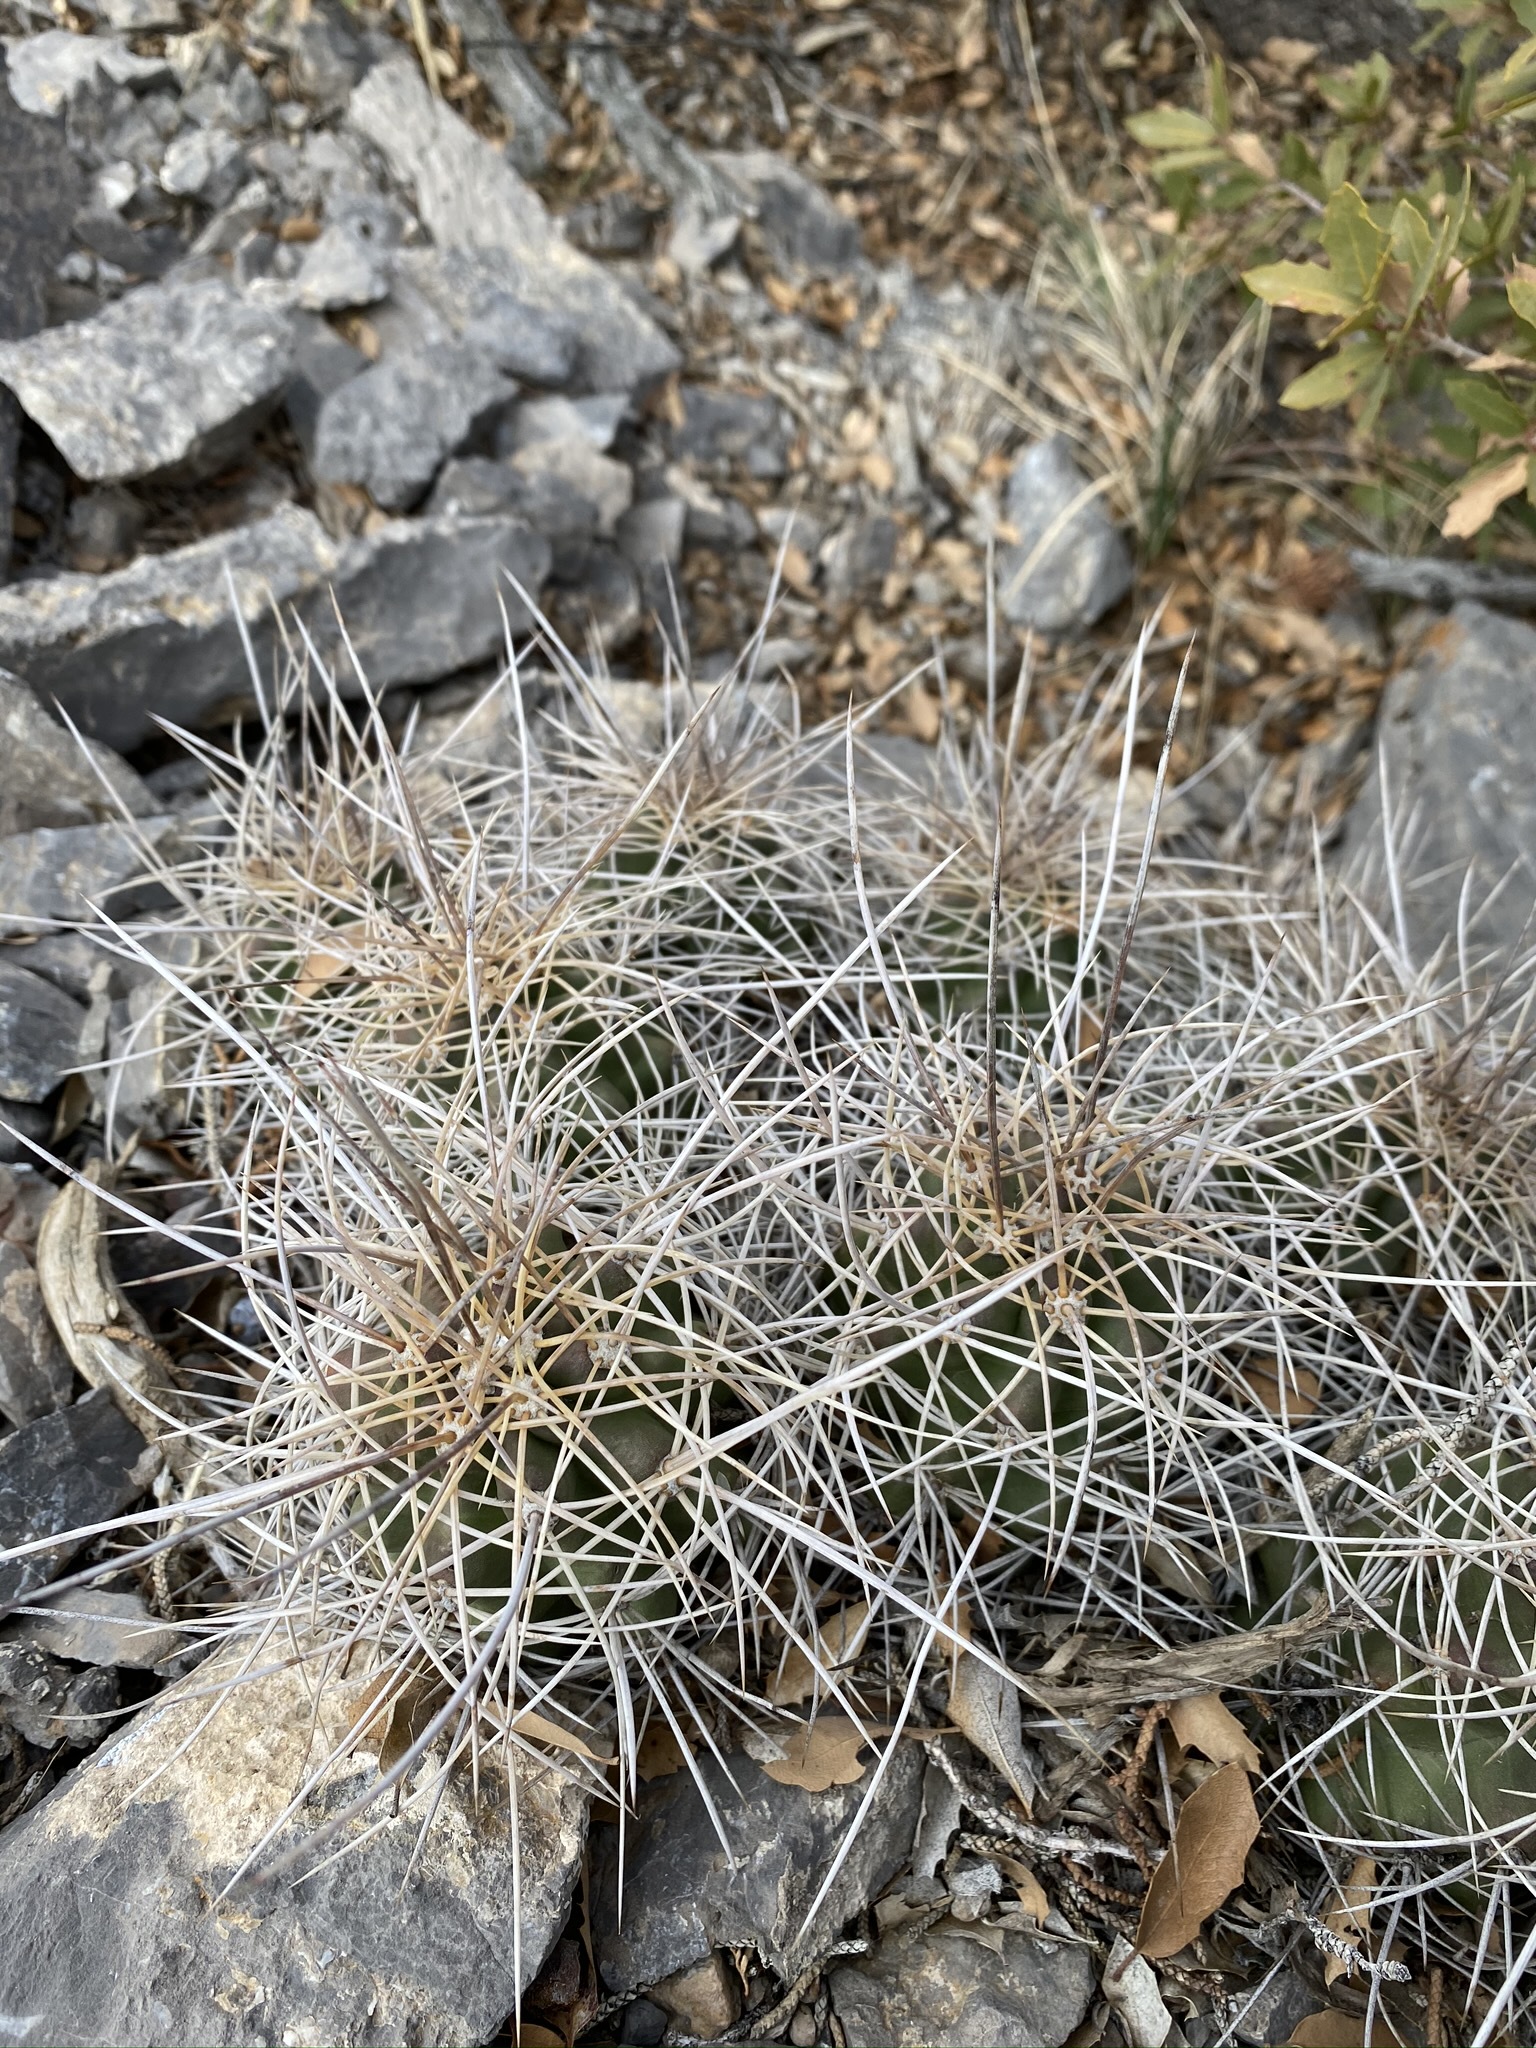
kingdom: Plantae
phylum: Tracheophyta
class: Magnoliopsida
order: Caryophyllales
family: Cactaceae
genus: Echinocereus
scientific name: Echinocereus triglochidiatus
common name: Claretcup hedgehog
